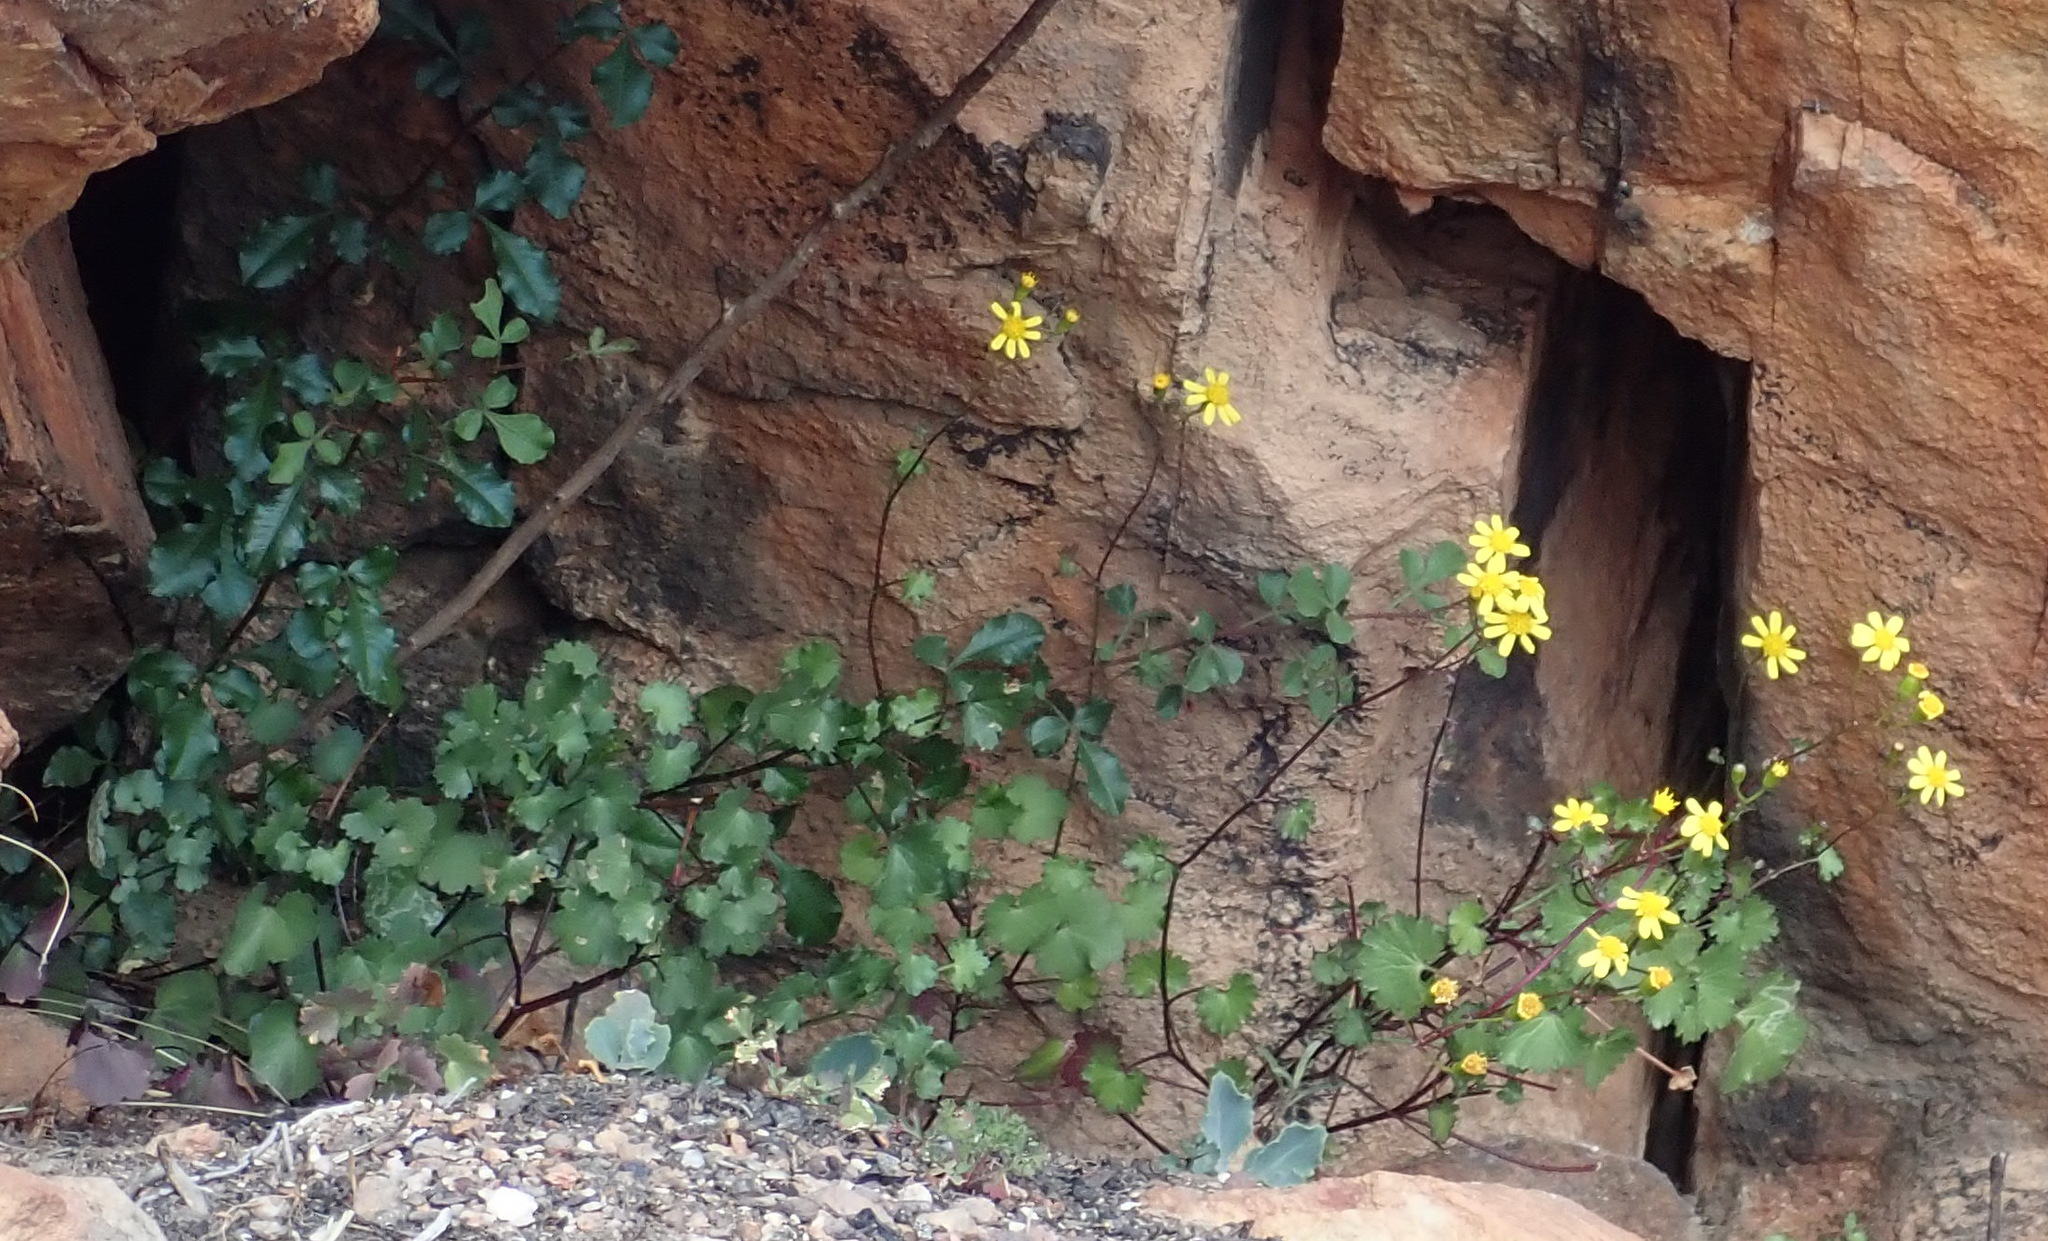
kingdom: Plantae
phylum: Tracheophyta
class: Magnoliopsida
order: Asterales
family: Asteraceae
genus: Cineraria
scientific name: Cineraria lobata
